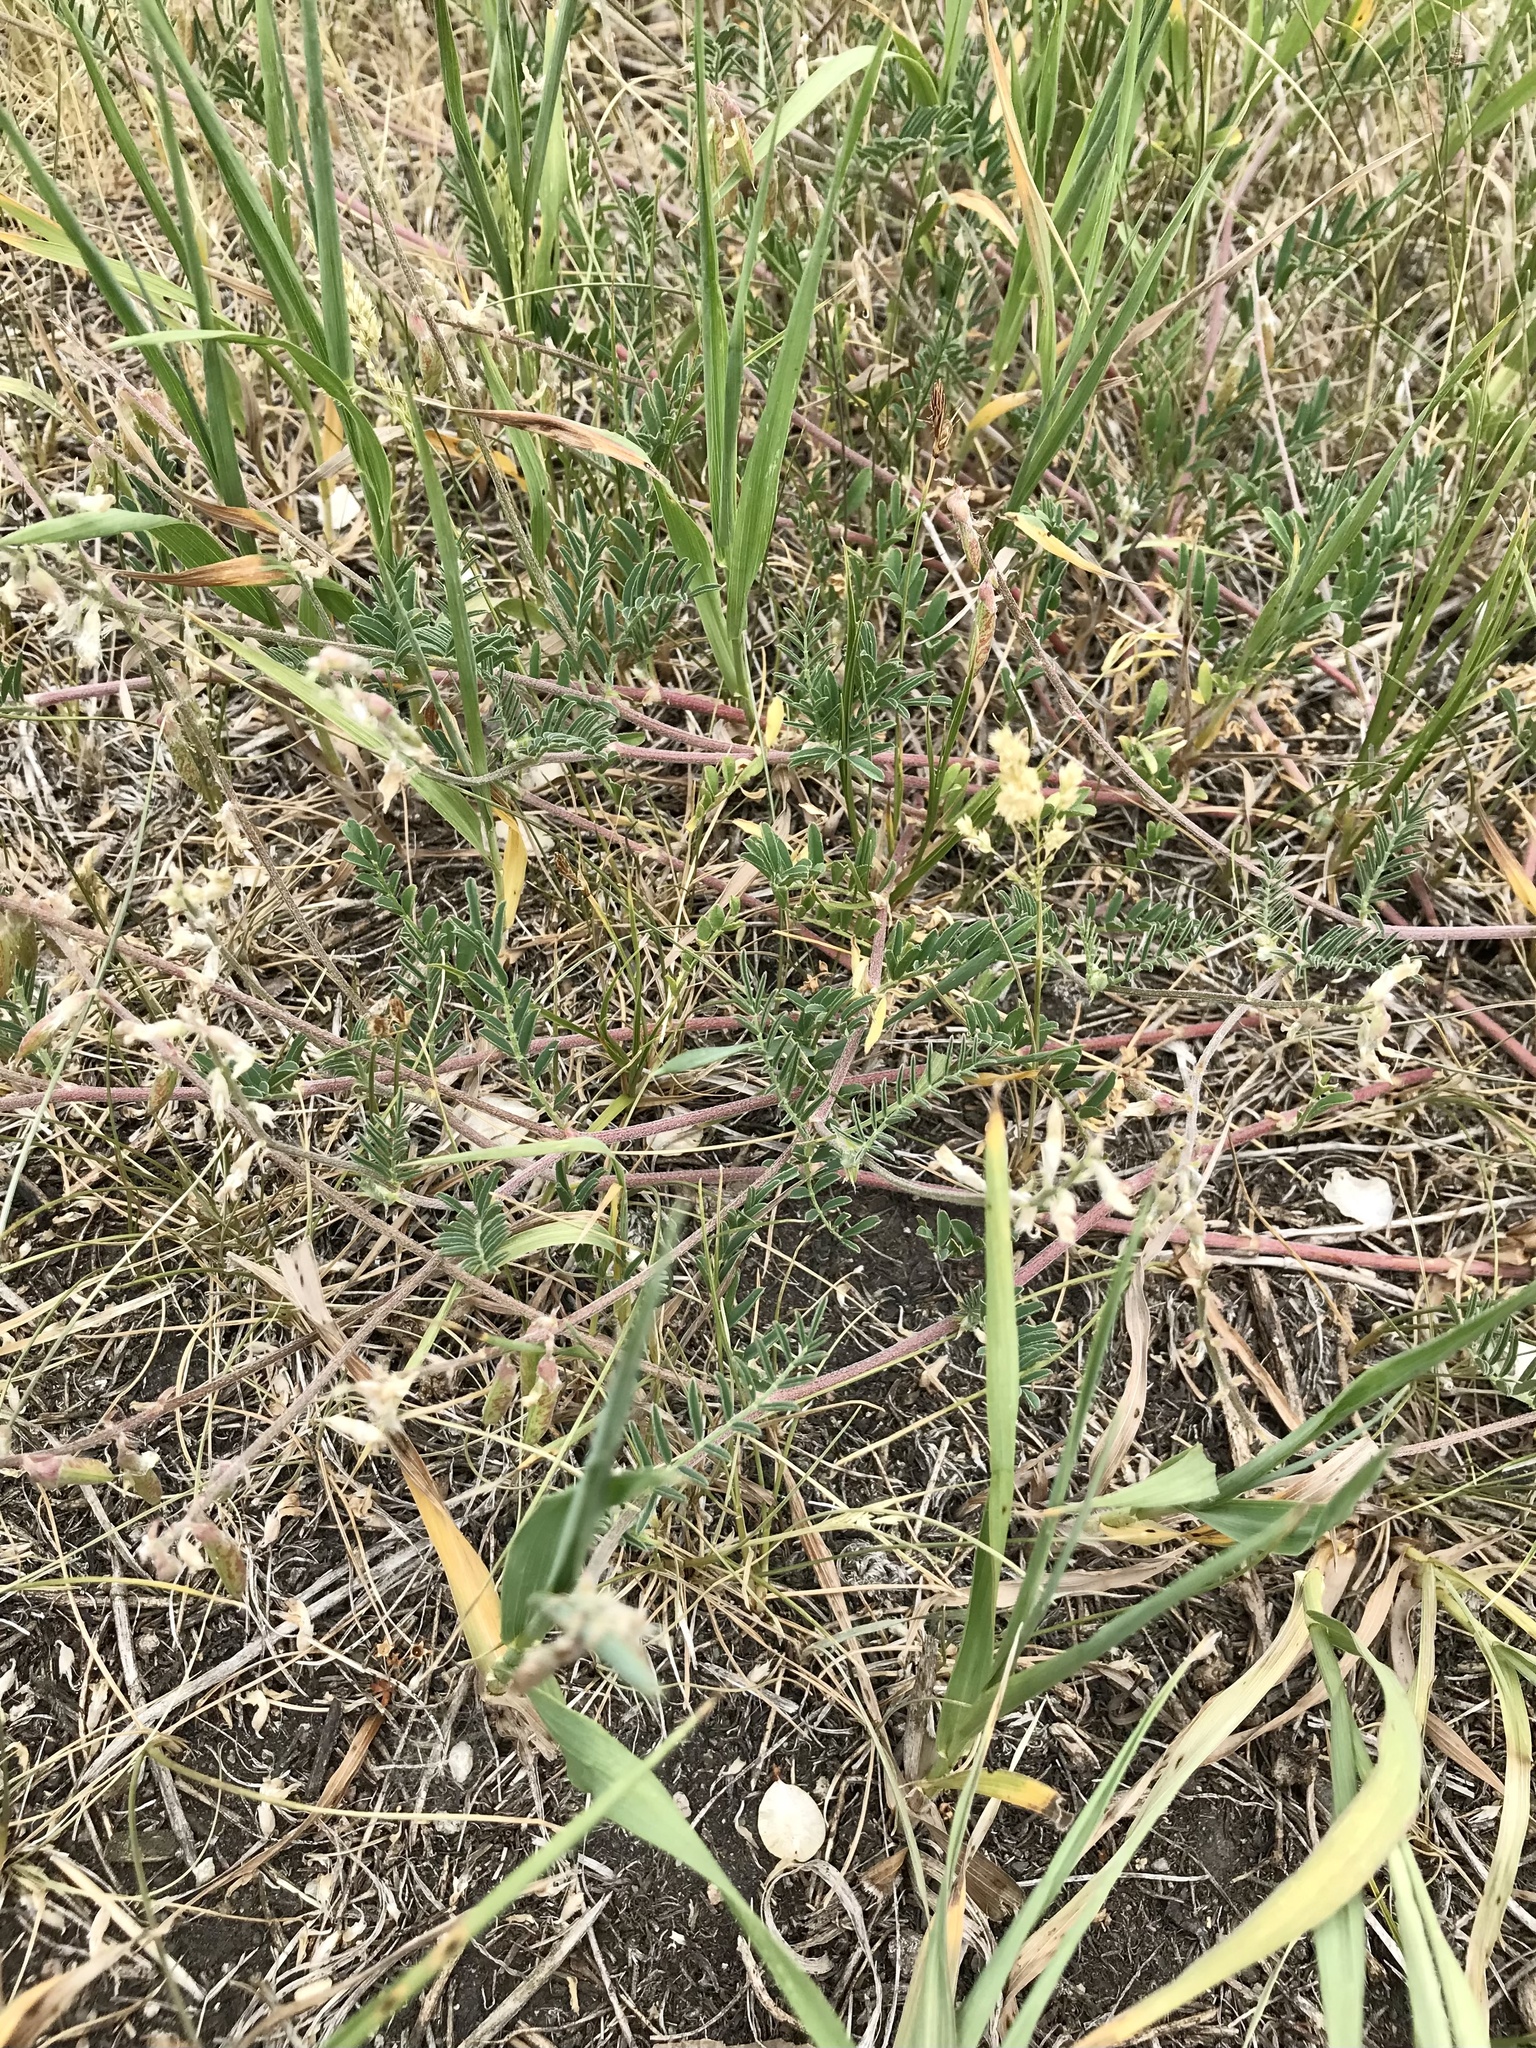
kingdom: Plantae
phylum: Tracheophyta
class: Magnoliopsida
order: Fabales
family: Fabaceae
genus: Astragalus
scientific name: Astragalus flexuosus
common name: Pliant milk-vetch
